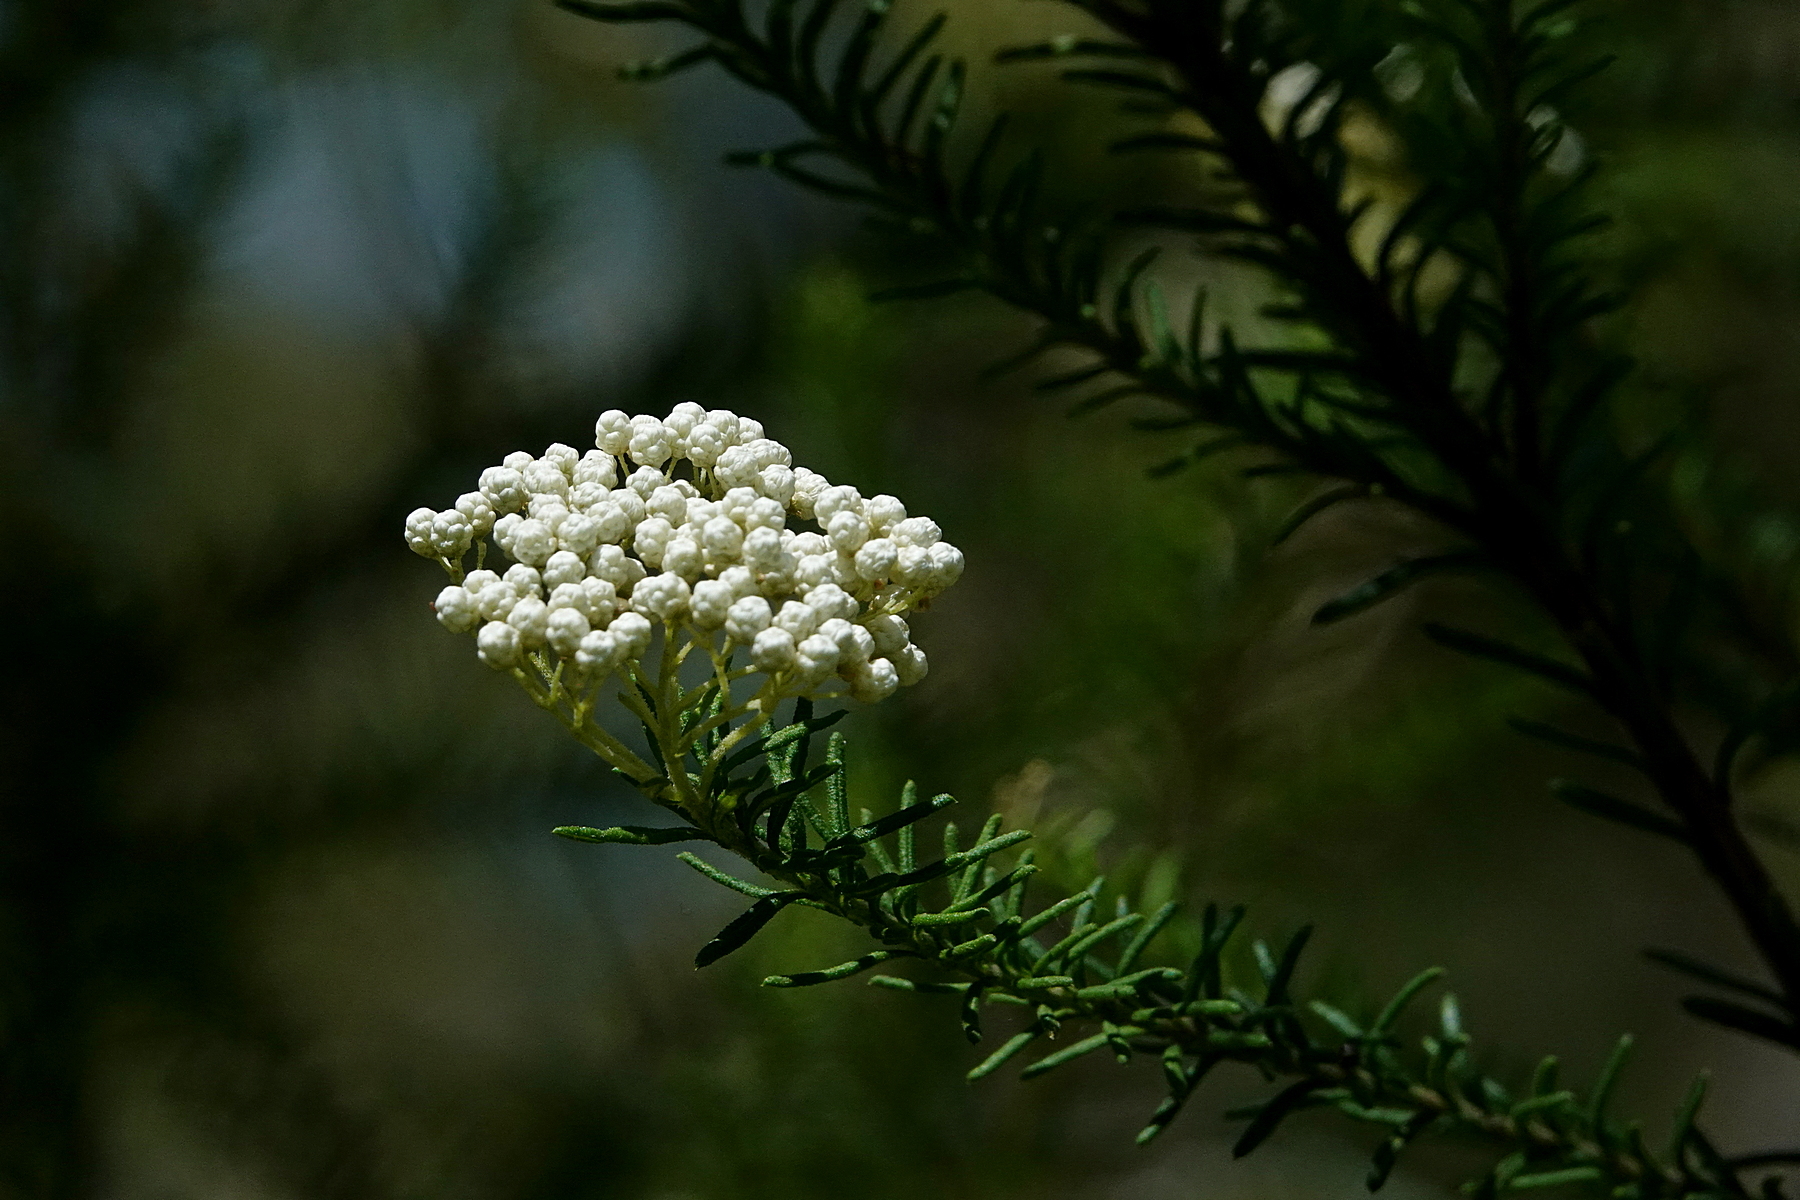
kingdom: Plantae
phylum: Tracheophyta
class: Magnoliopsida
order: Asterales
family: Asteraceae
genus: Ozothamnus
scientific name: Ozothamnus diosmifolius
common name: White-dogwood
